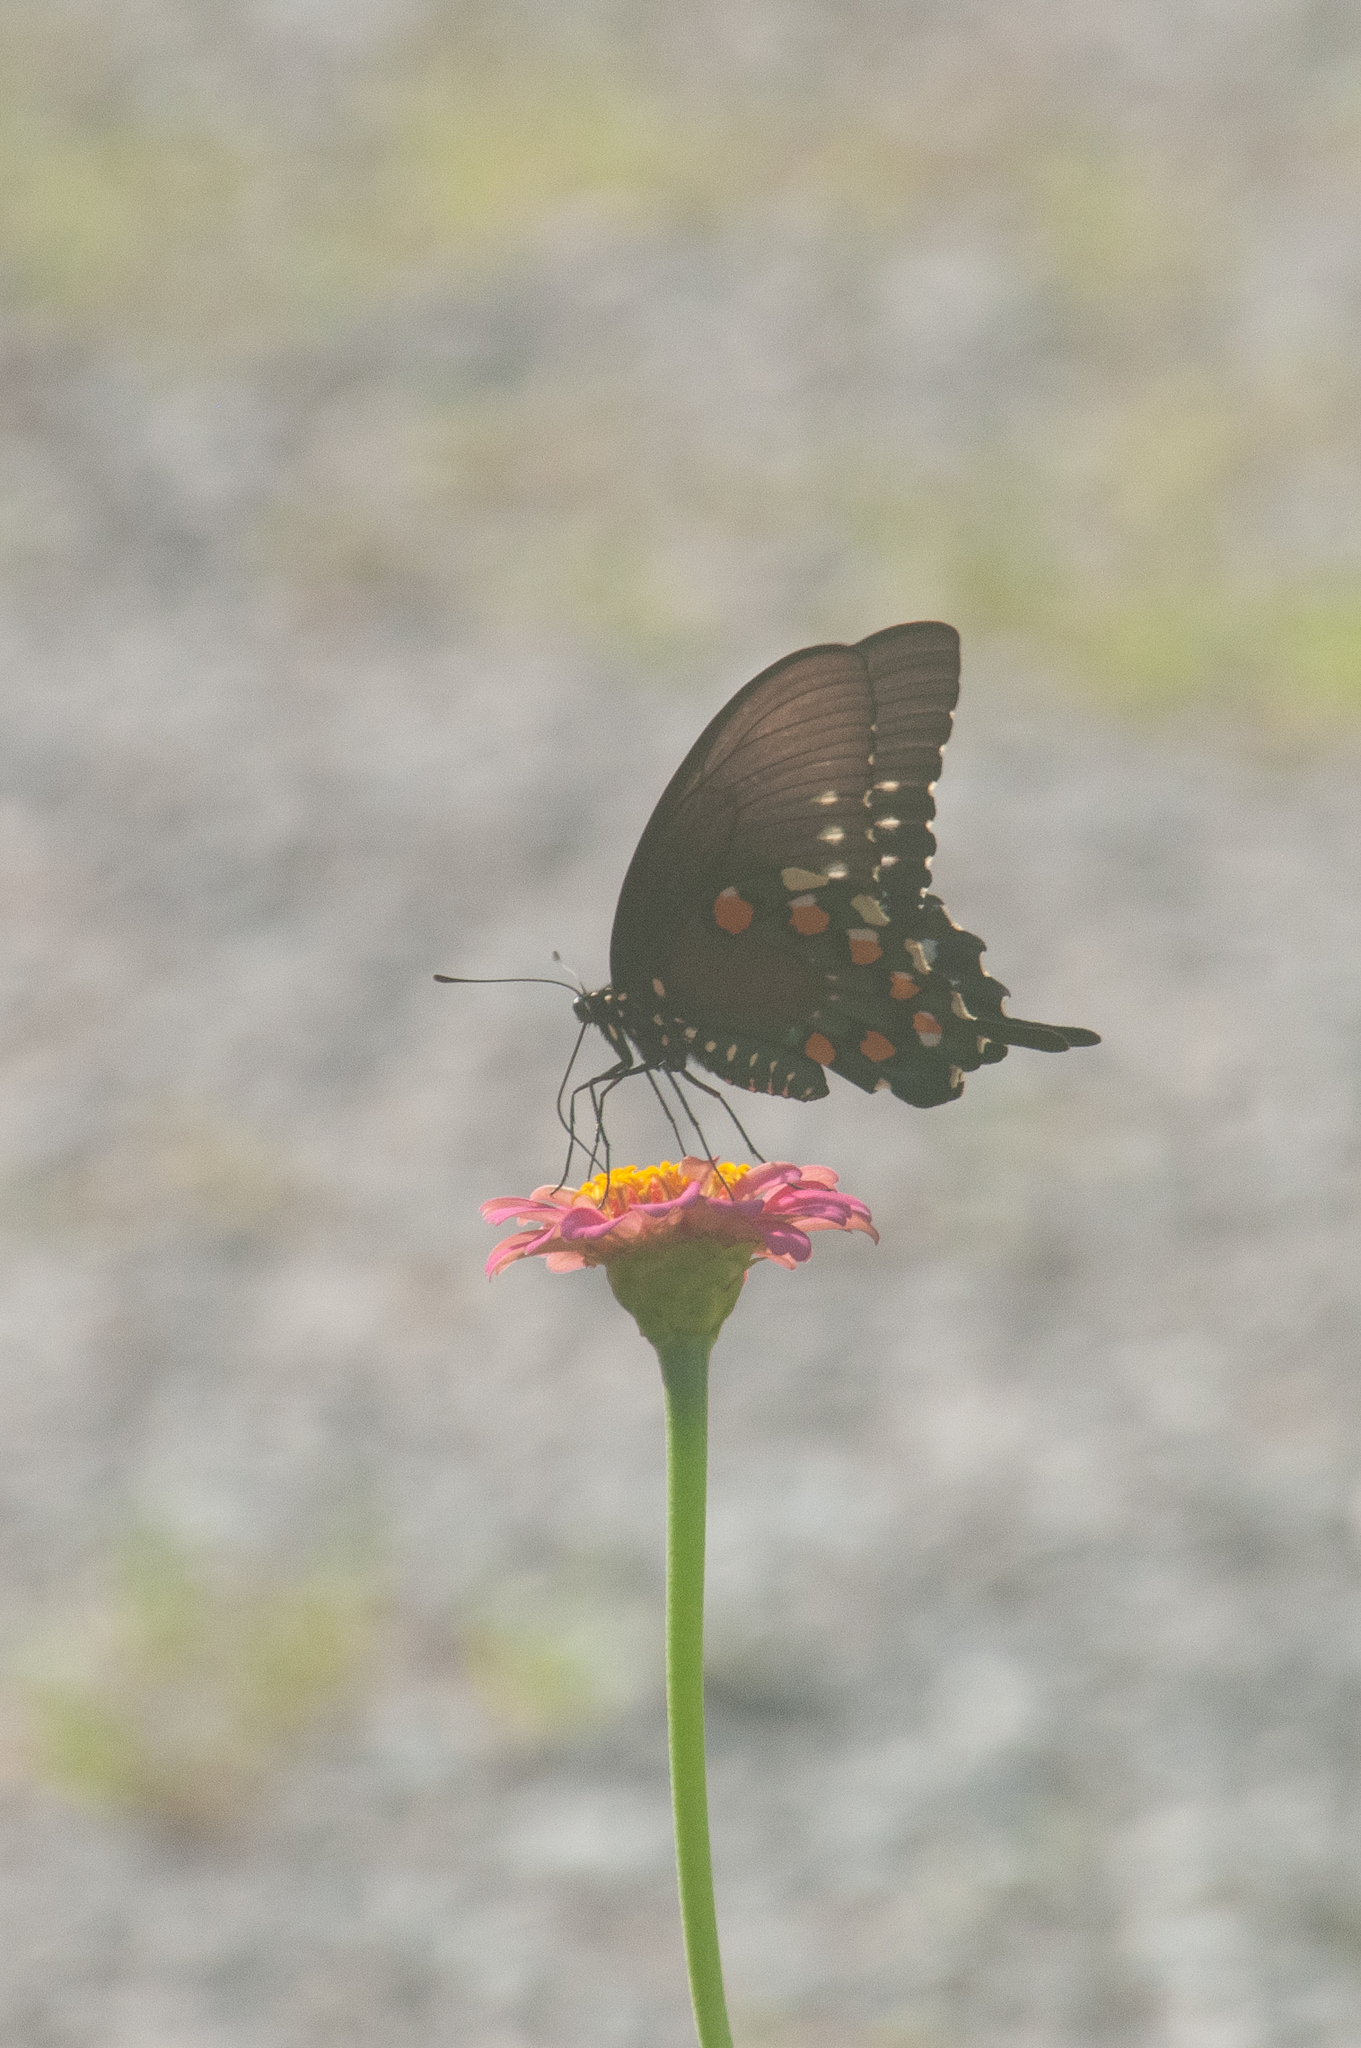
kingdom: Animalia
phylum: Arthropoda
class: Insecta
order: Lepidoptera
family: Papilionidae
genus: Battus
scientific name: Battus philenor
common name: Pipevine swallowtail
